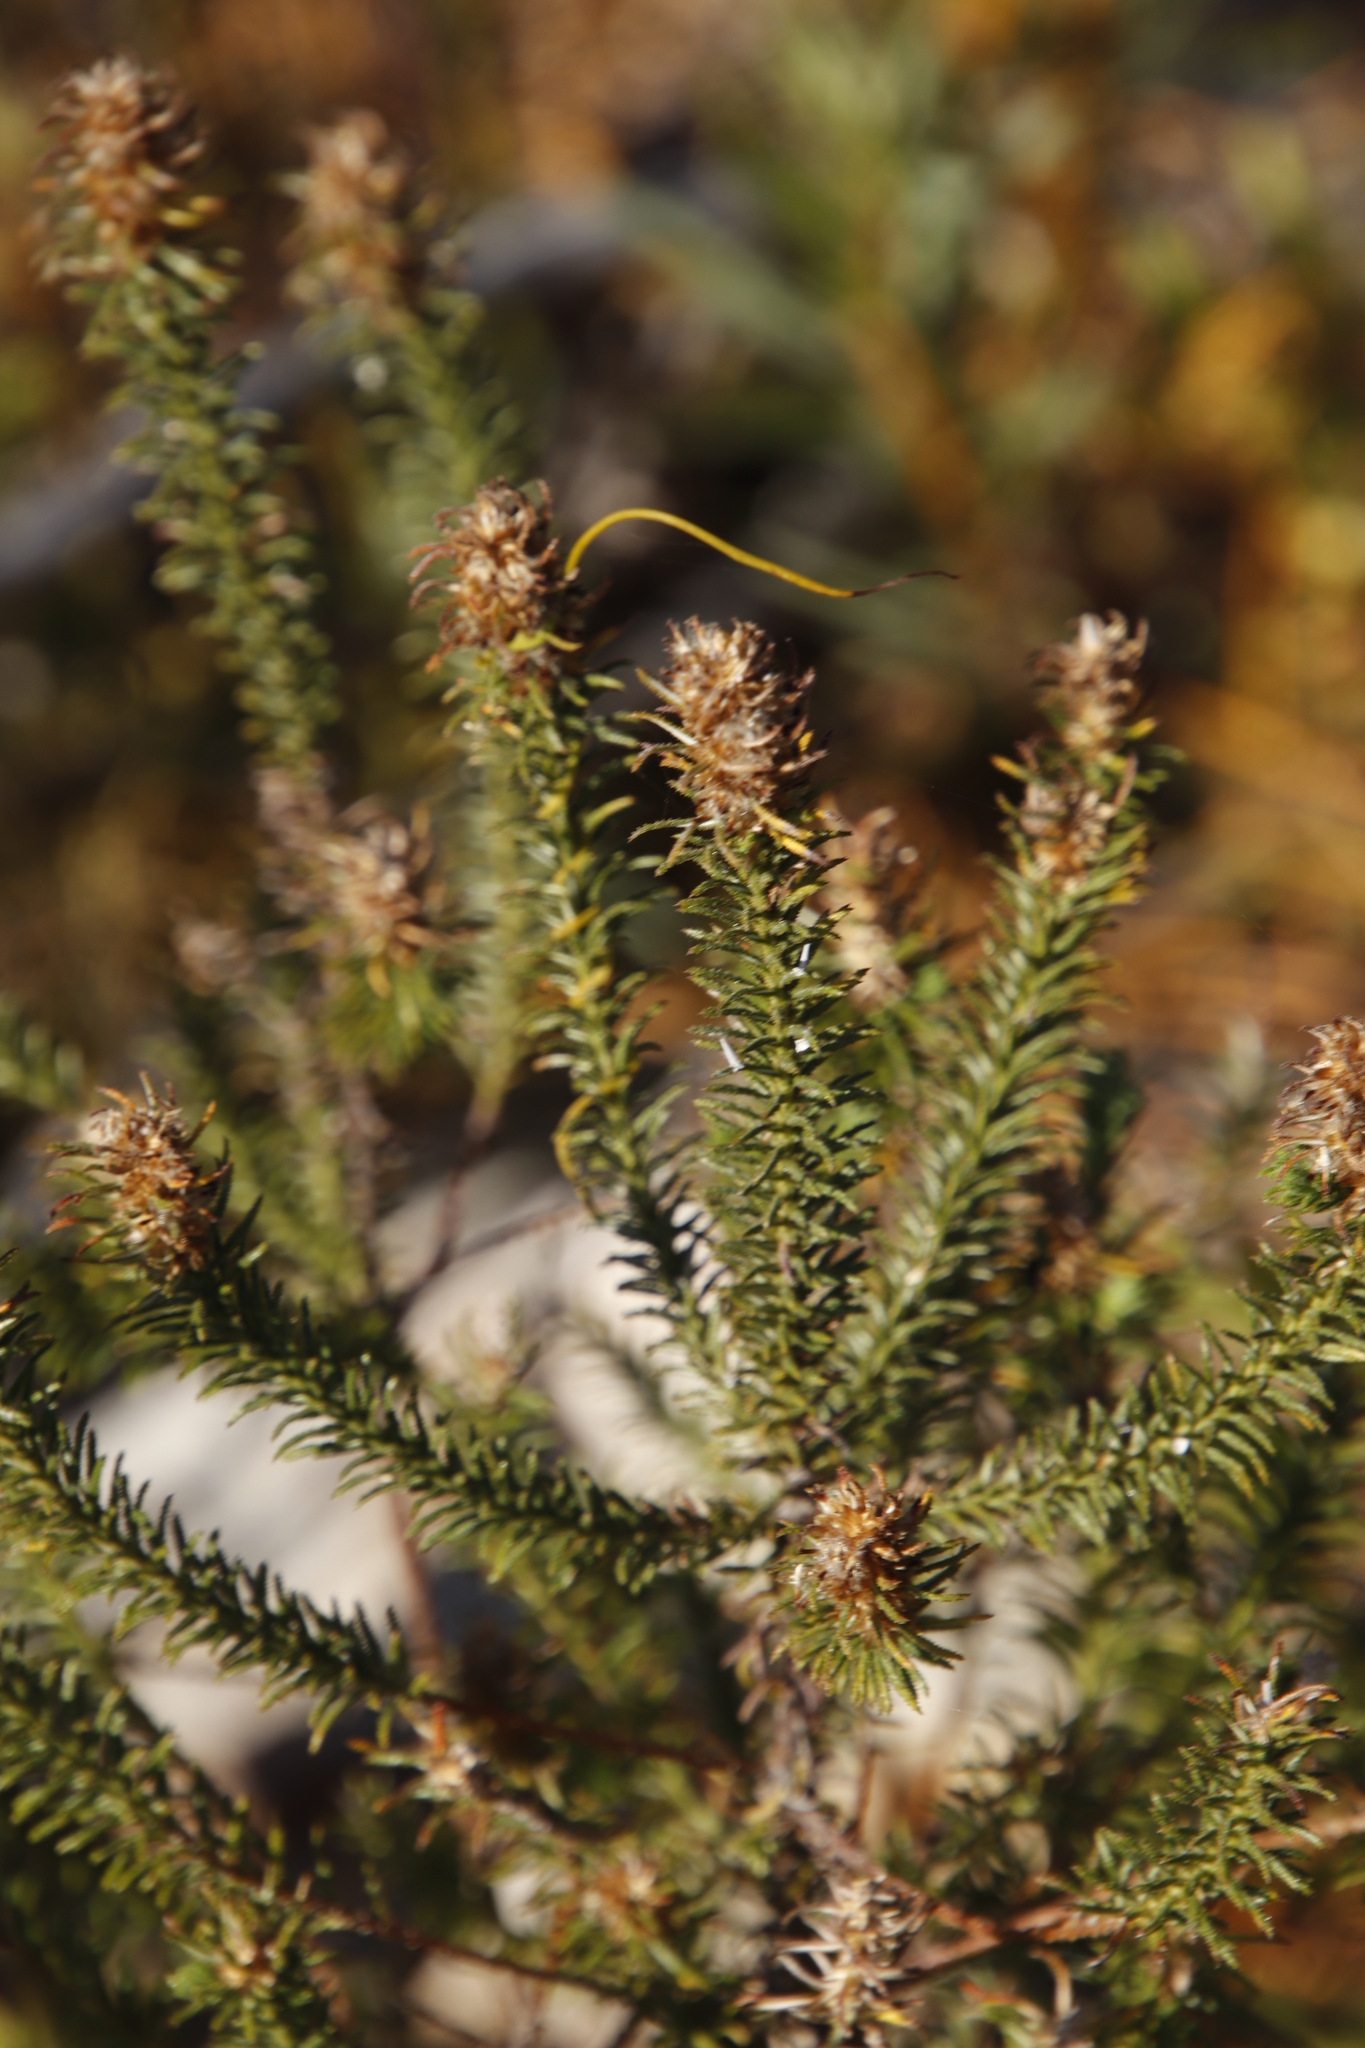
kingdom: Plantae
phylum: Tracheophyta
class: Magnoliopsida
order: Asterales
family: Asteraceae
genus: Myrovernix
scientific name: Myrovernix glandulosus
